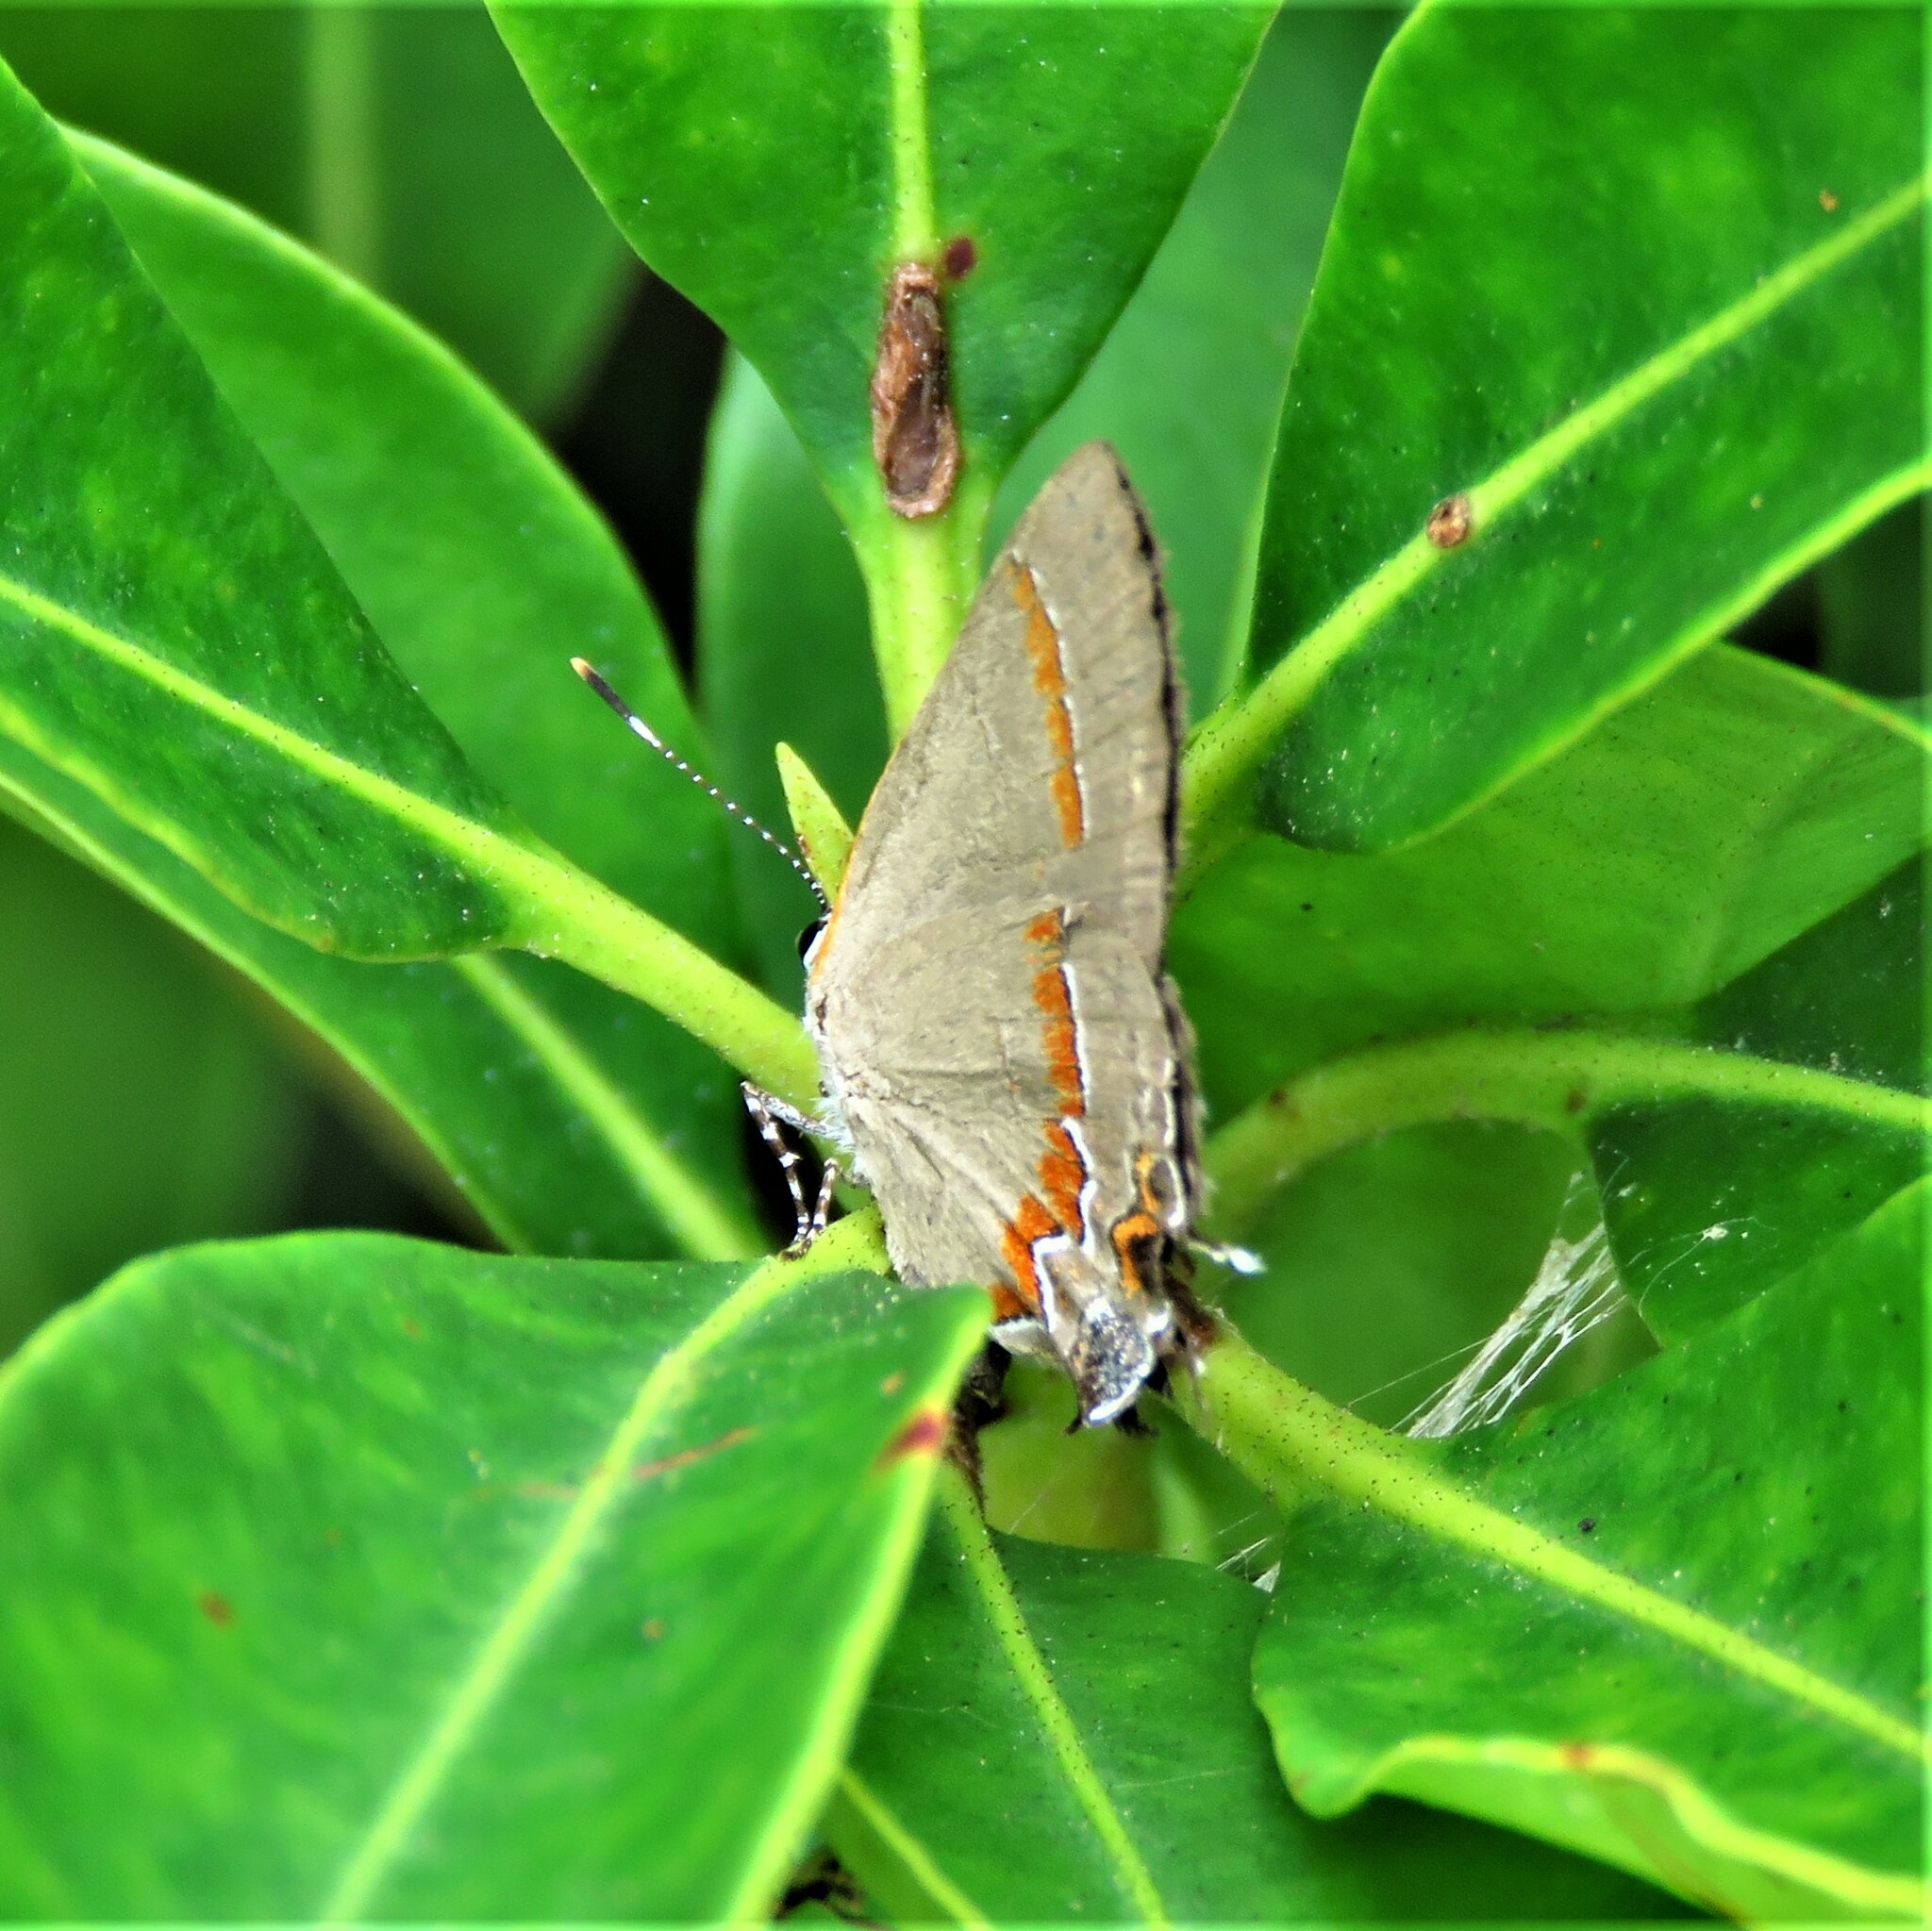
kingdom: Animalia
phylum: Arthropoda
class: Insecta
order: Lepidoptera
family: Lycaenidae
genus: Calycopis
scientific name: Calycopis cecrops
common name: Red-banded hairstreak
